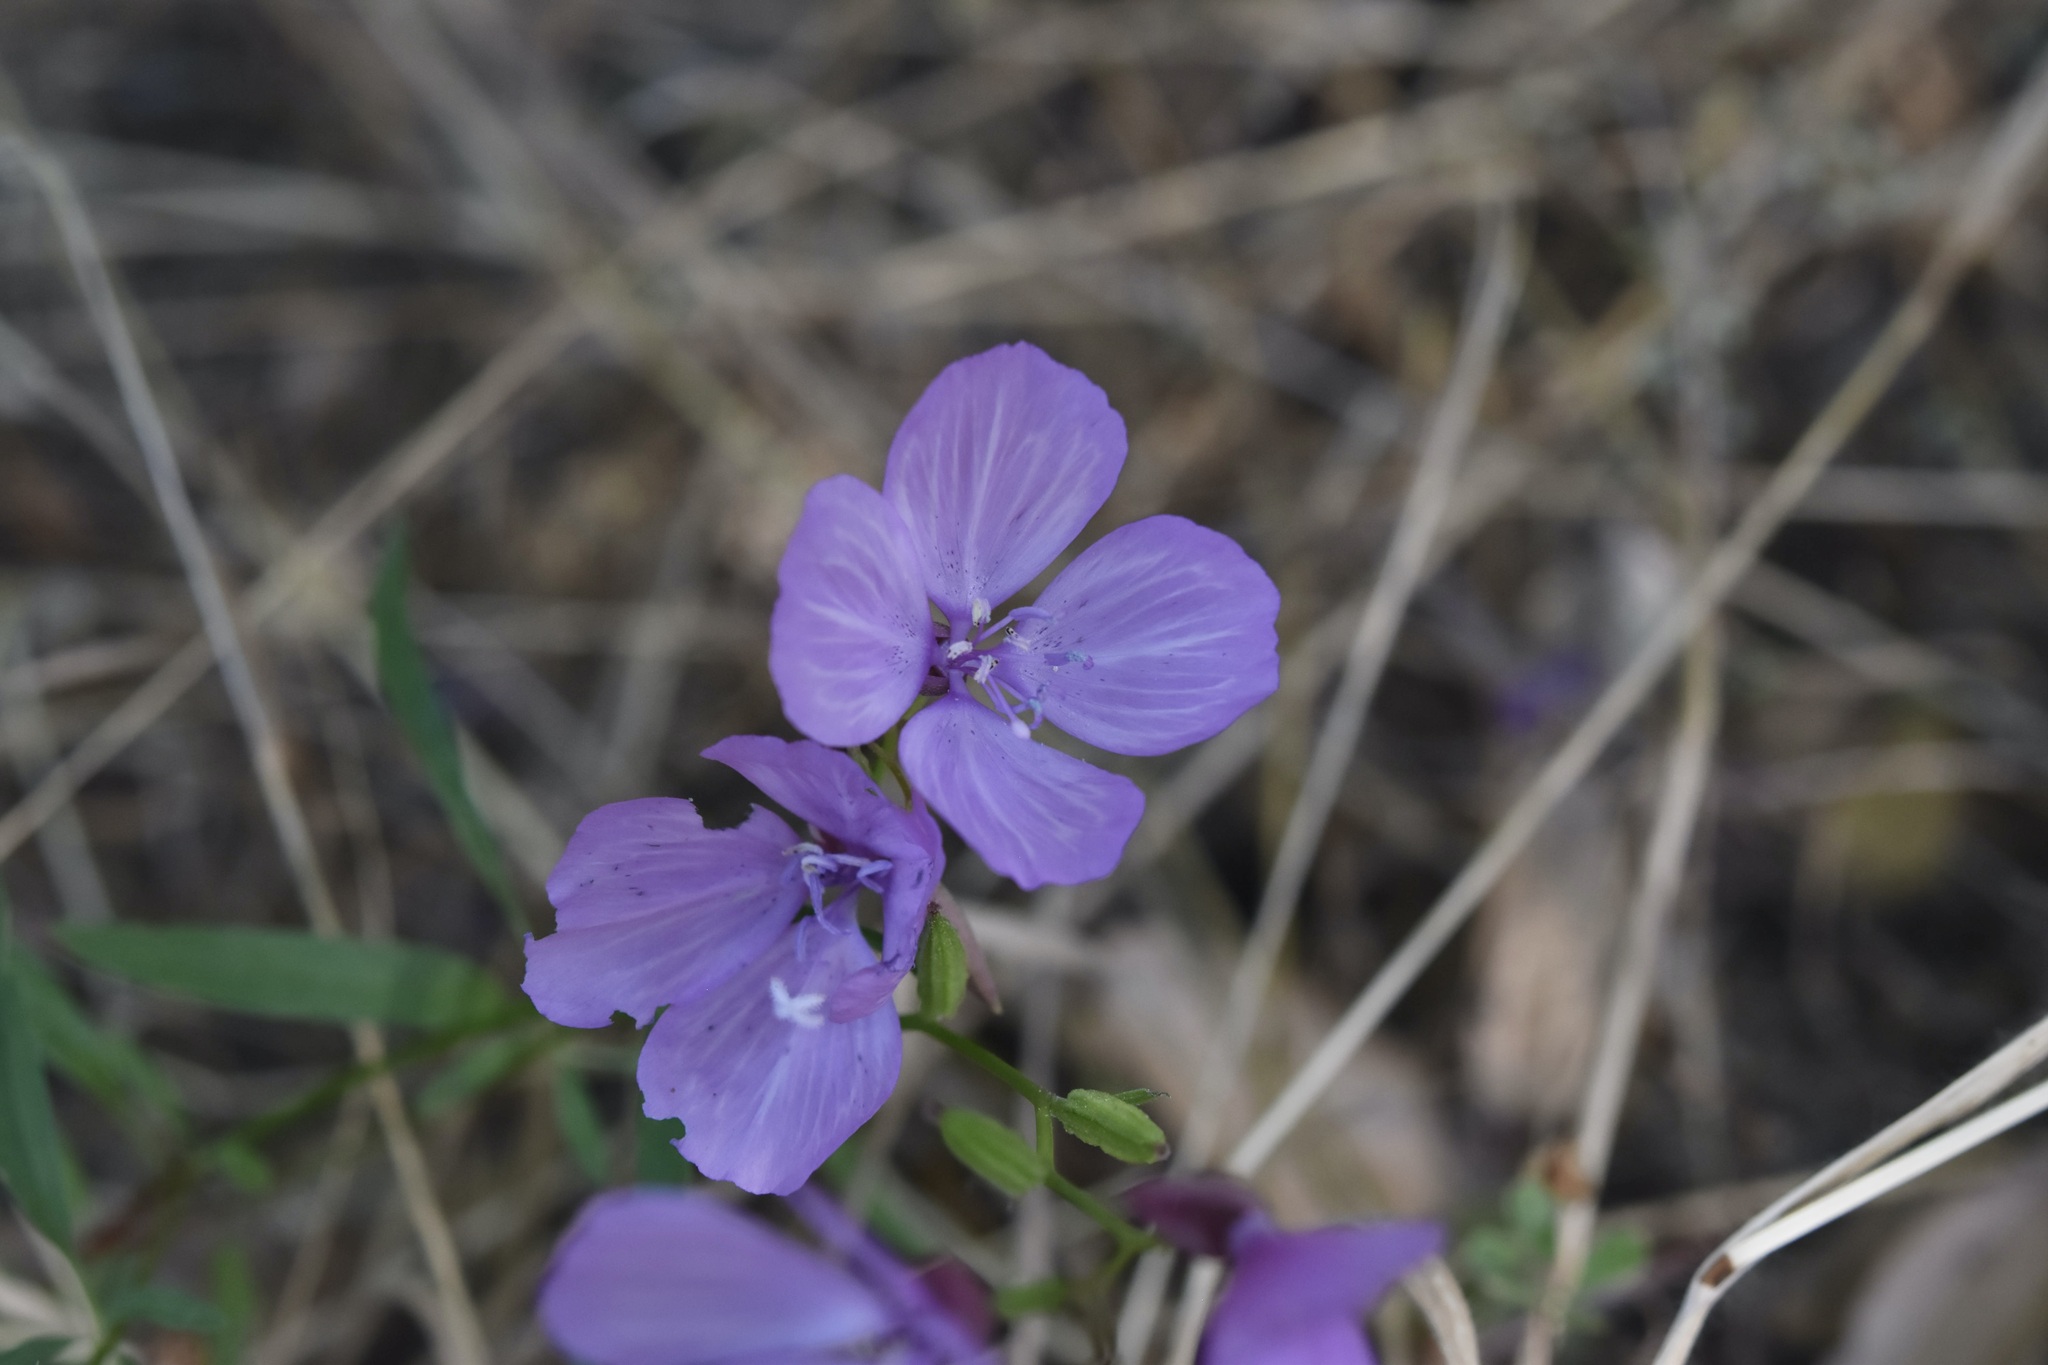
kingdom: Plantae
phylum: Tracheophyta
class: Magnoliopsida
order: Myrtales
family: Onagraceae
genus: Clarkia
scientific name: Clarkia dudleyana
